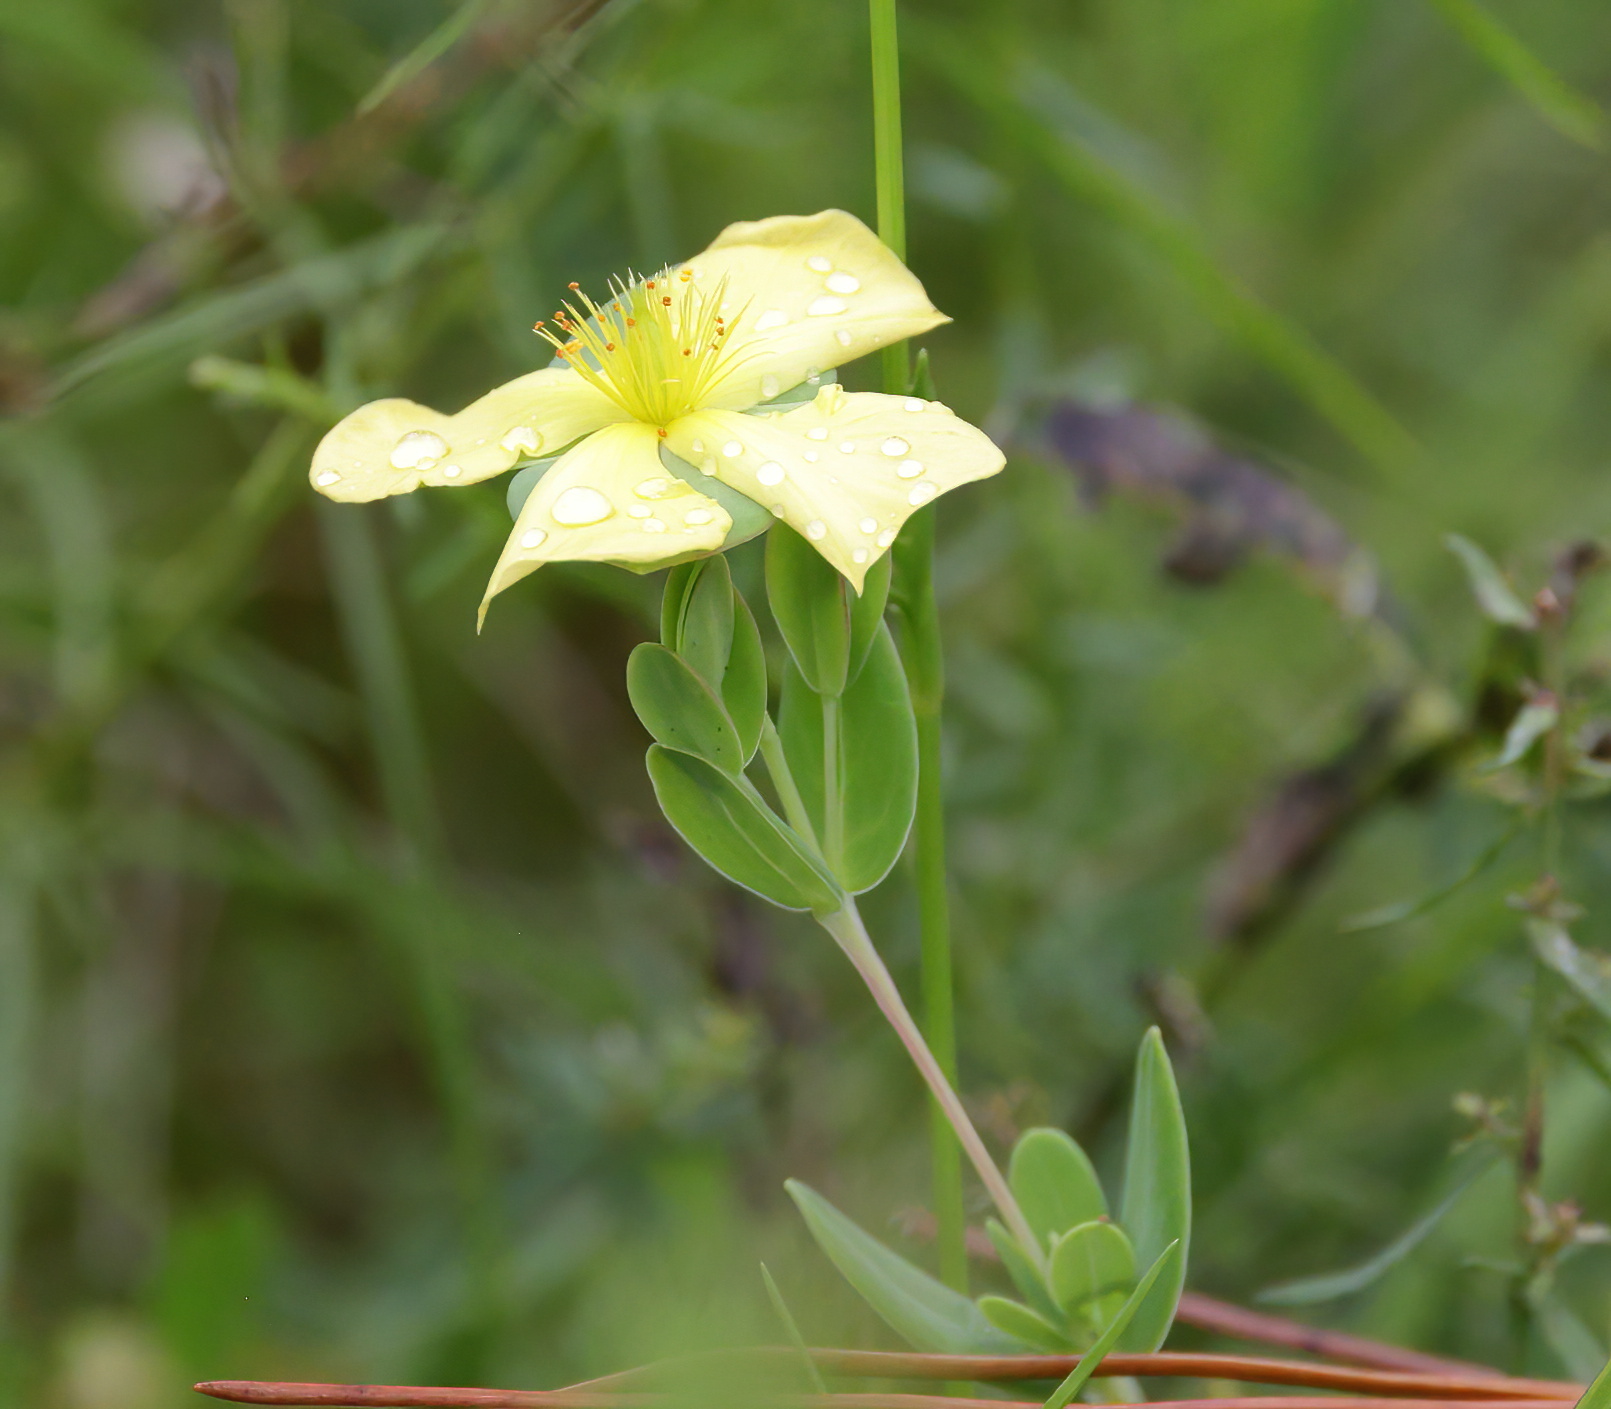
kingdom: Plantae
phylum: Tracheophyta
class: Magnoliopsida
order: Malpighiales
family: Hypericaceae
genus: Hypericum
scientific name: Hypericum crux-andreae
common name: St.-peter's-wort
